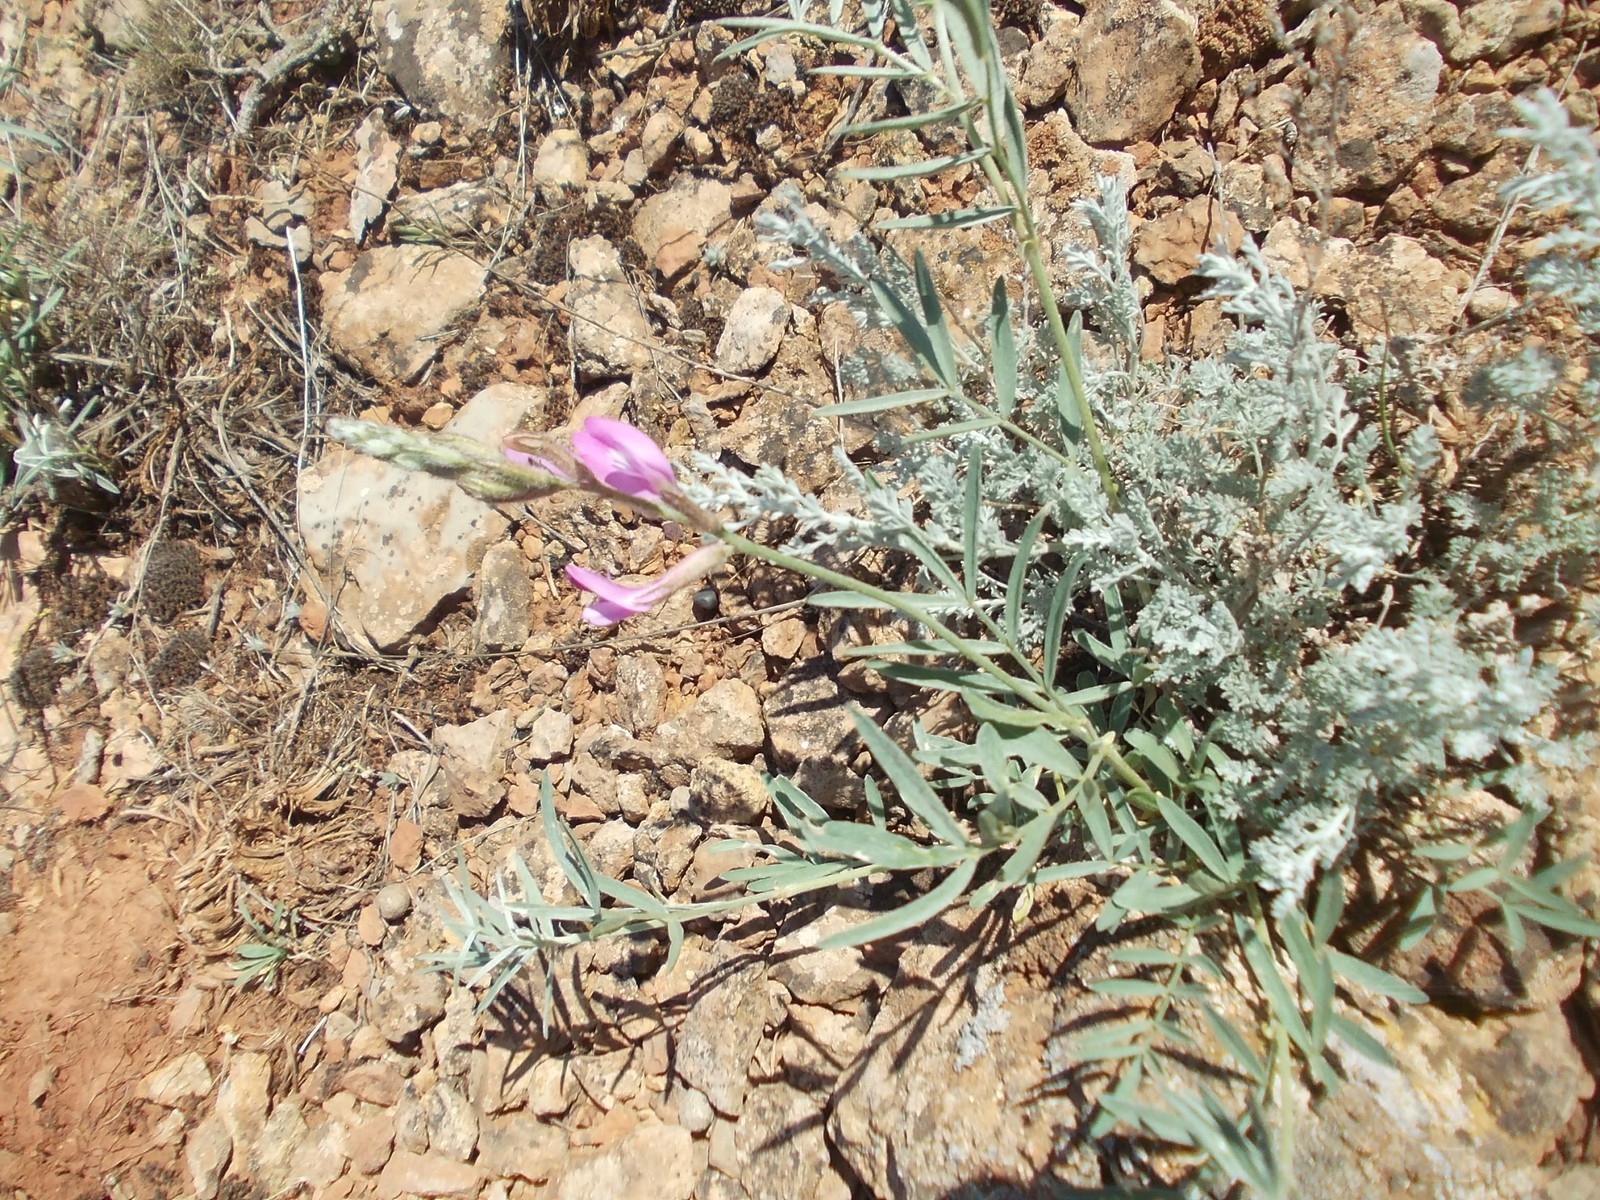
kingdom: Plantae
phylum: Tracheophyta
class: Magnoliopsida
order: Fabales
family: Fabaceae
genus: Astragalus
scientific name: Astragalus brachylobus
